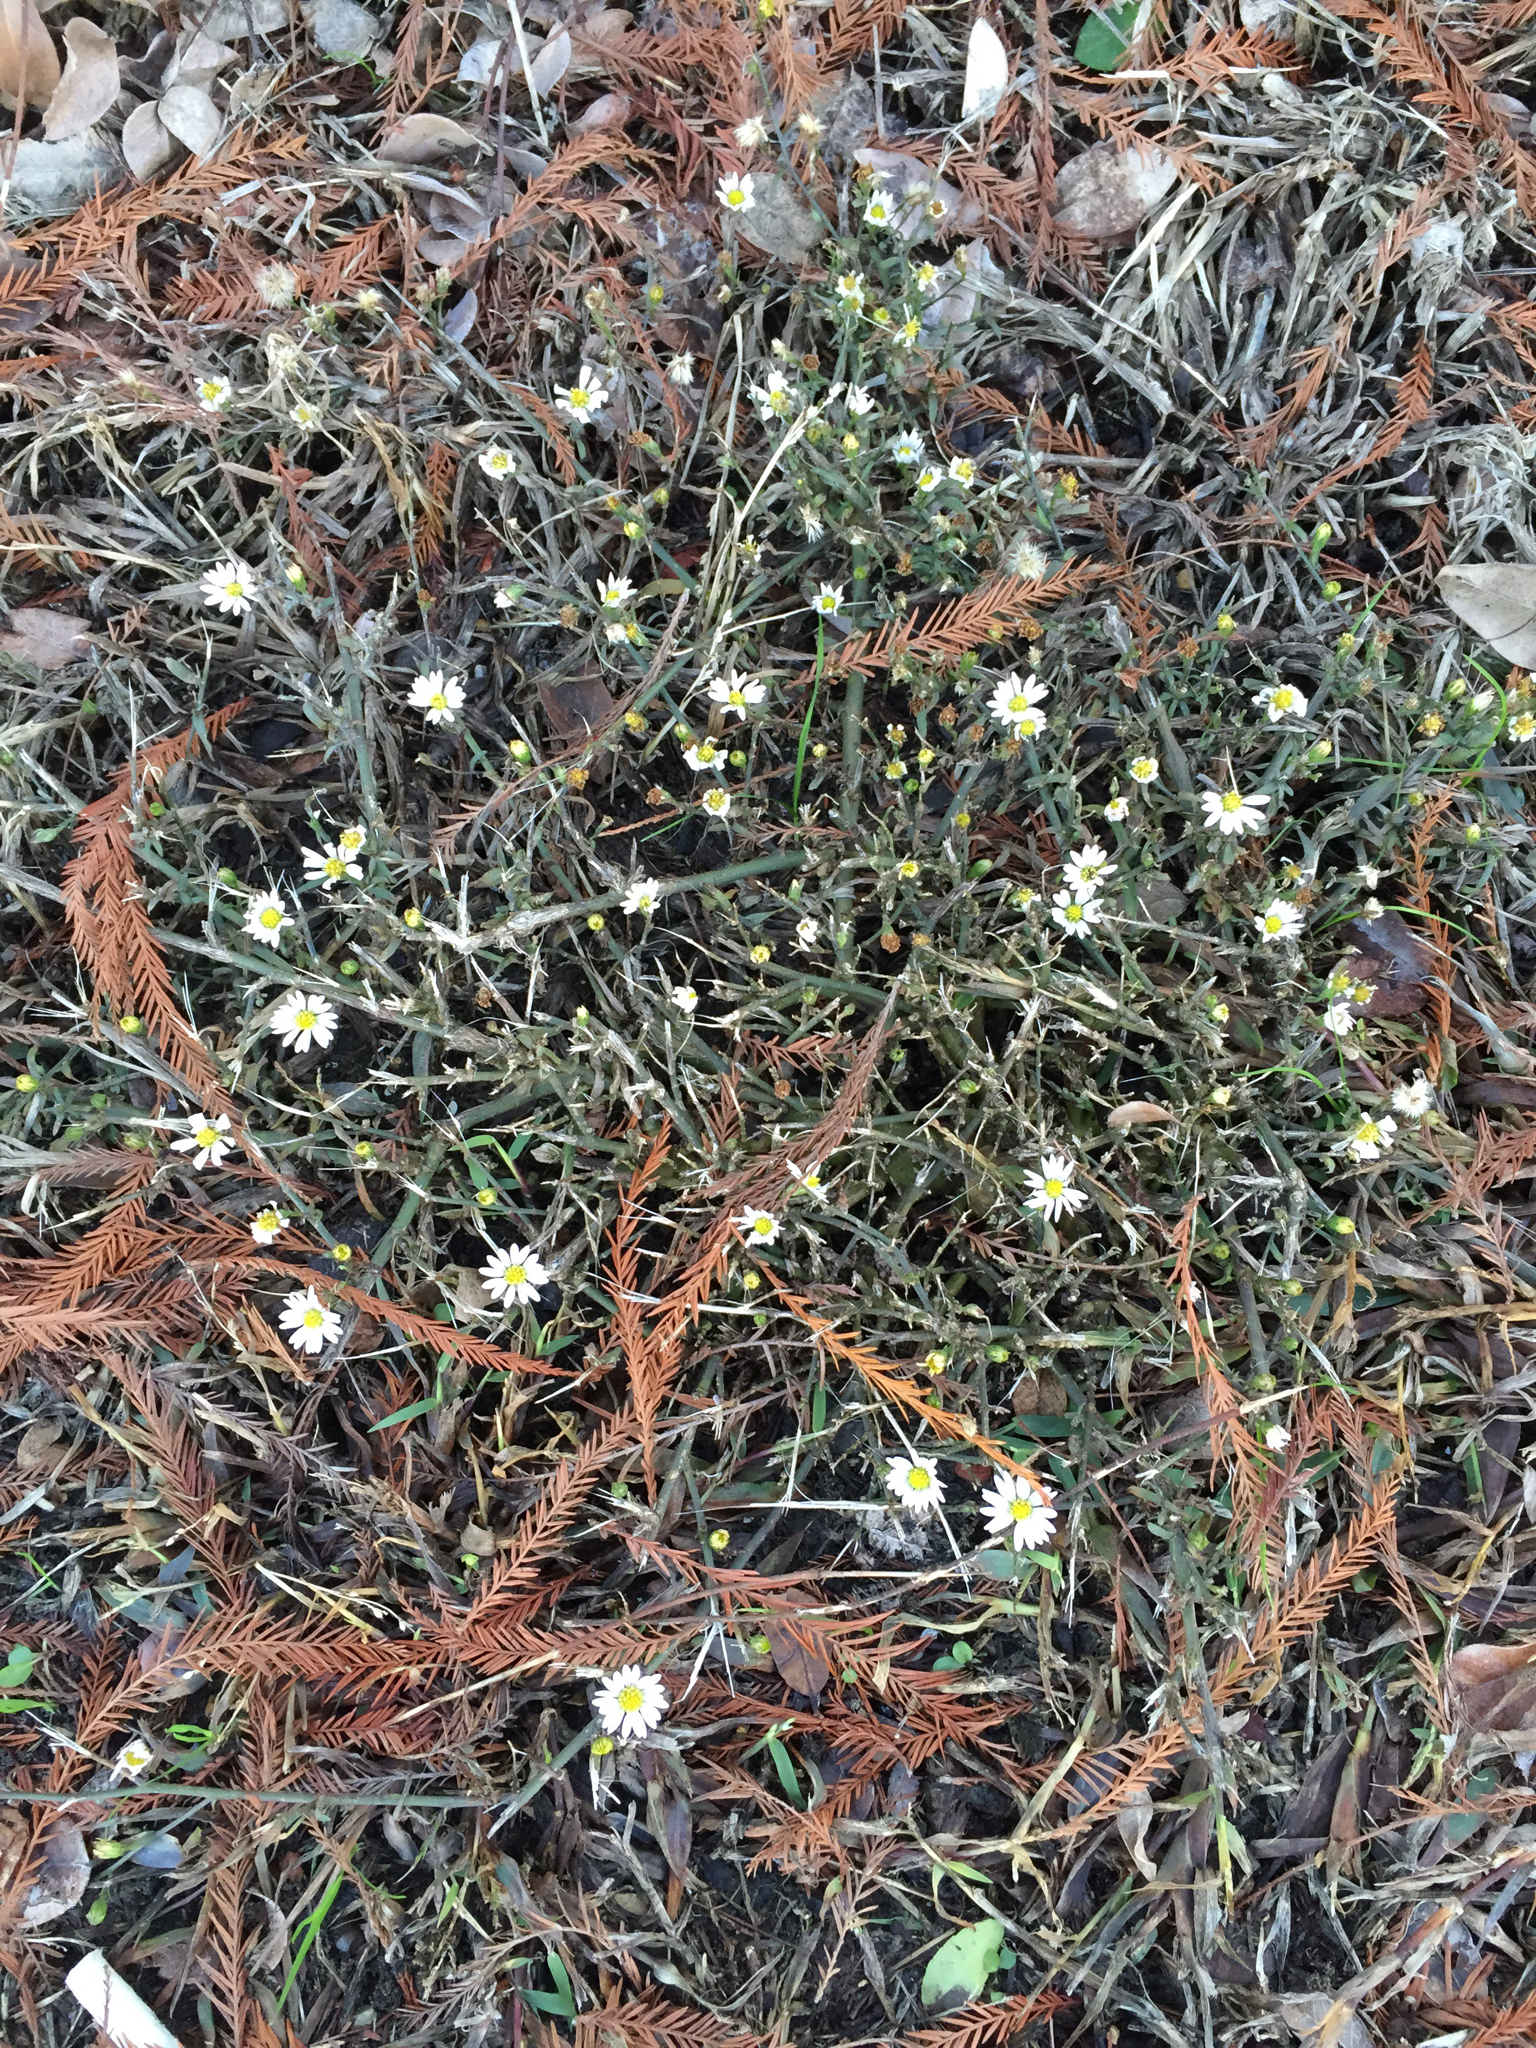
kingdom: Plantae
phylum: Tracheophyta
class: Magnoliopsida
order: Asterales
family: Asteraceae
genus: Symphyotrichum
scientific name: Symphyotrichum divaricatum
